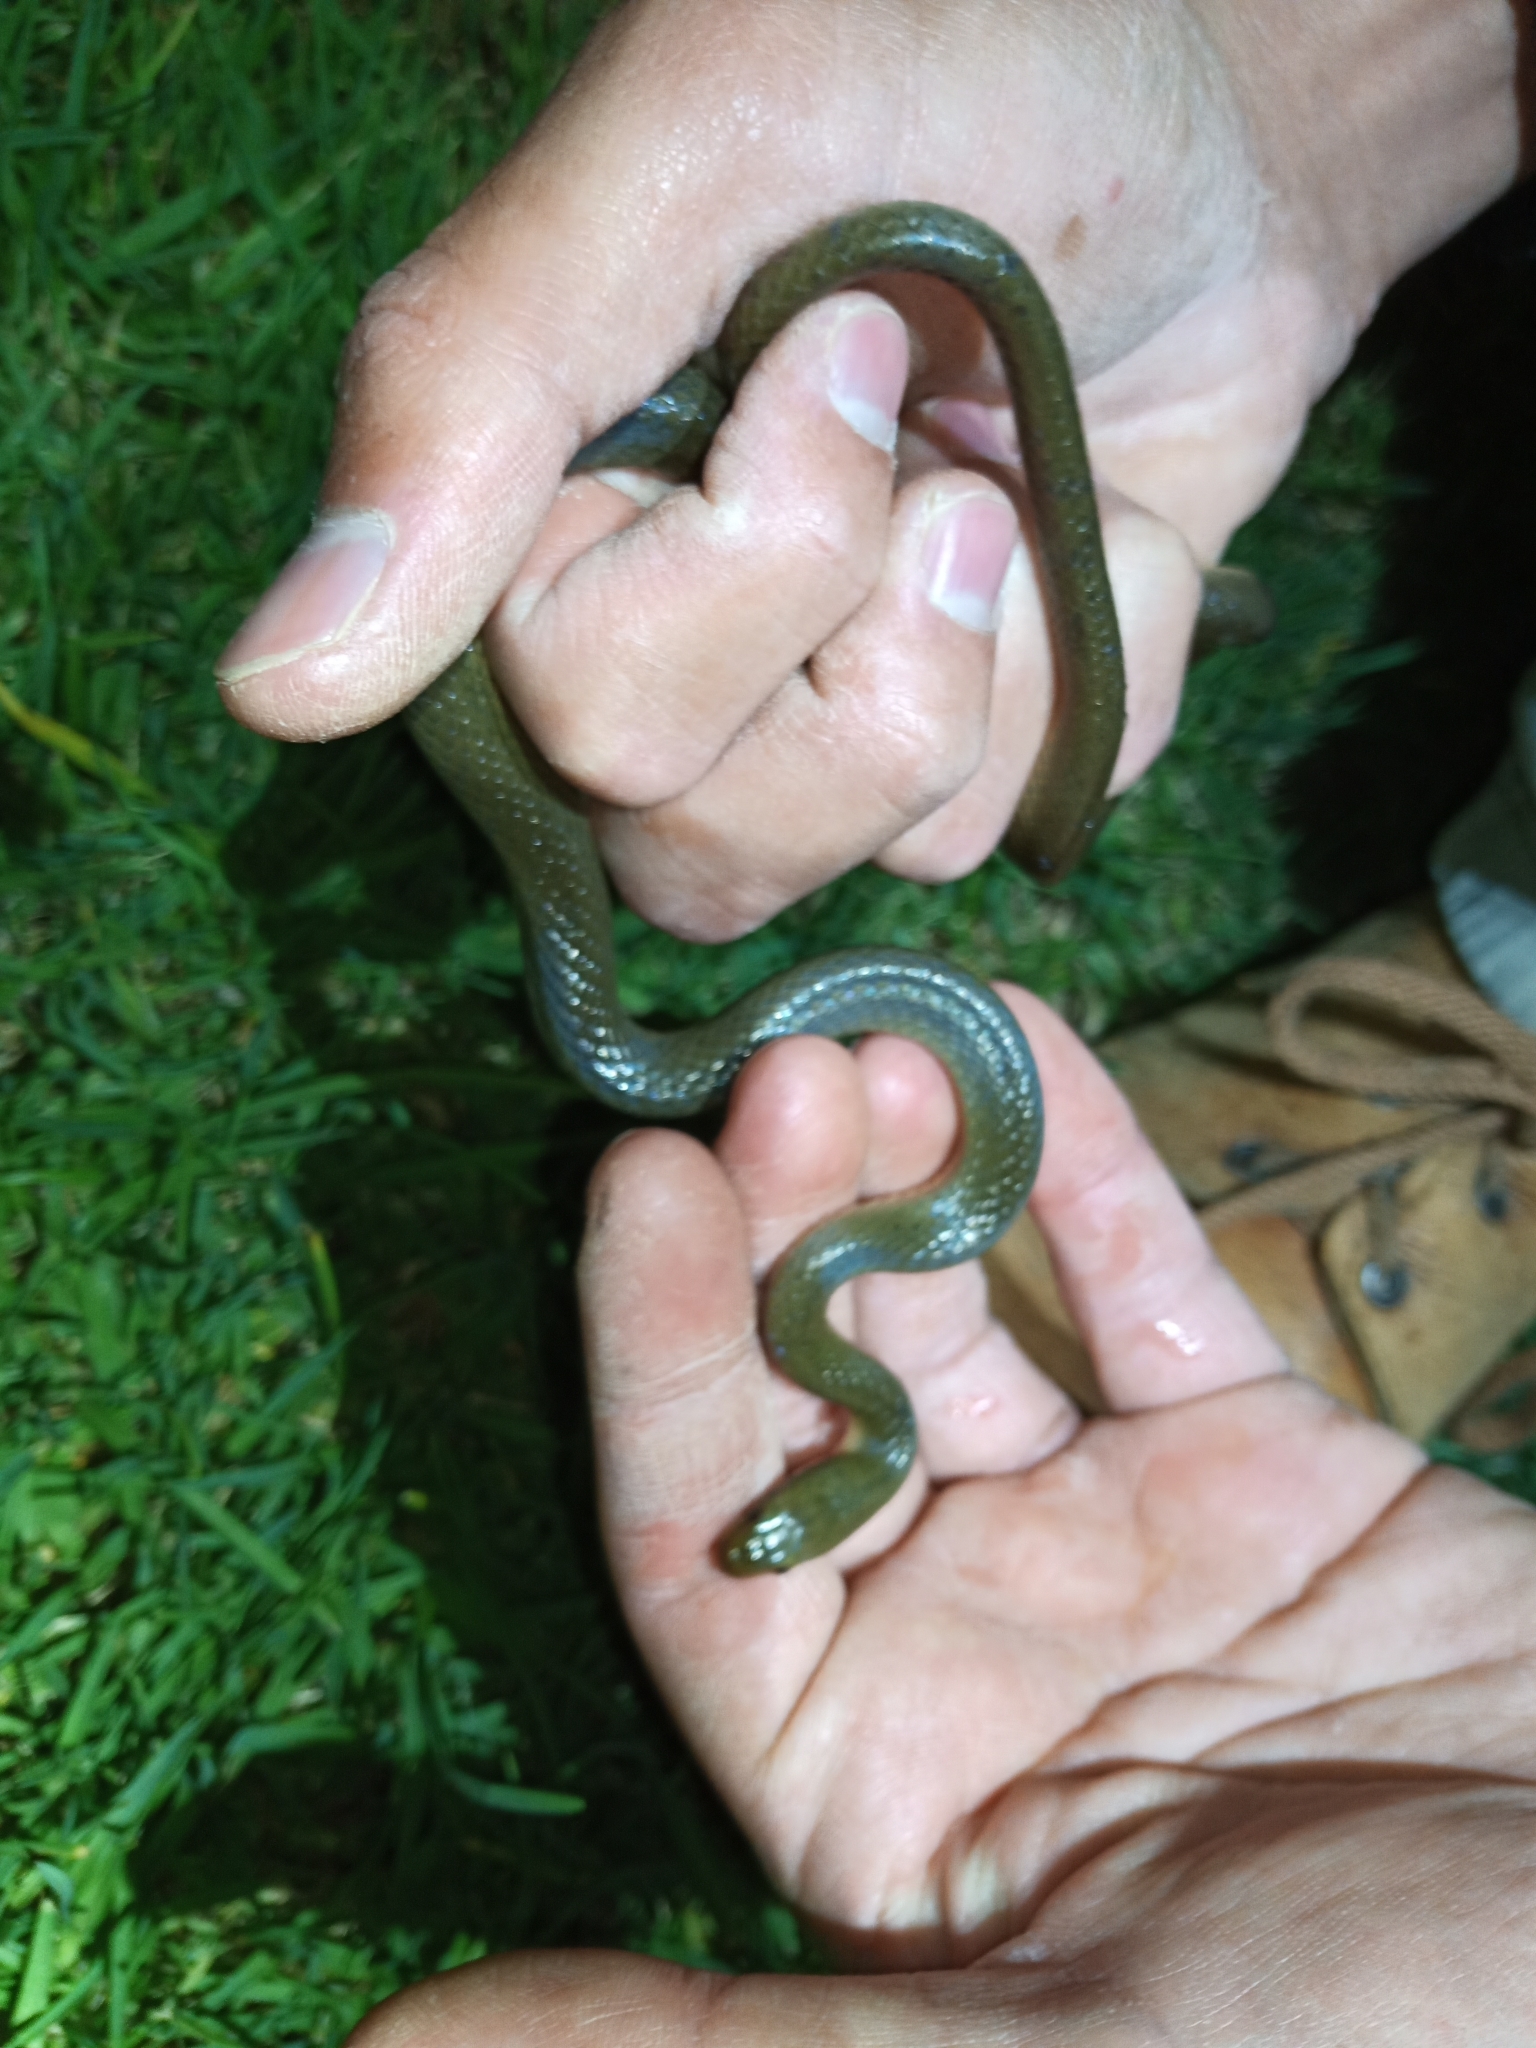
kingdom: Animalia
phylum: Chordata
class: Squamata
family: Lamprophiidae
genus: Lycodonomorphus
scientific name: Lycodonomorphus rufulus
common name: Brown water snake
